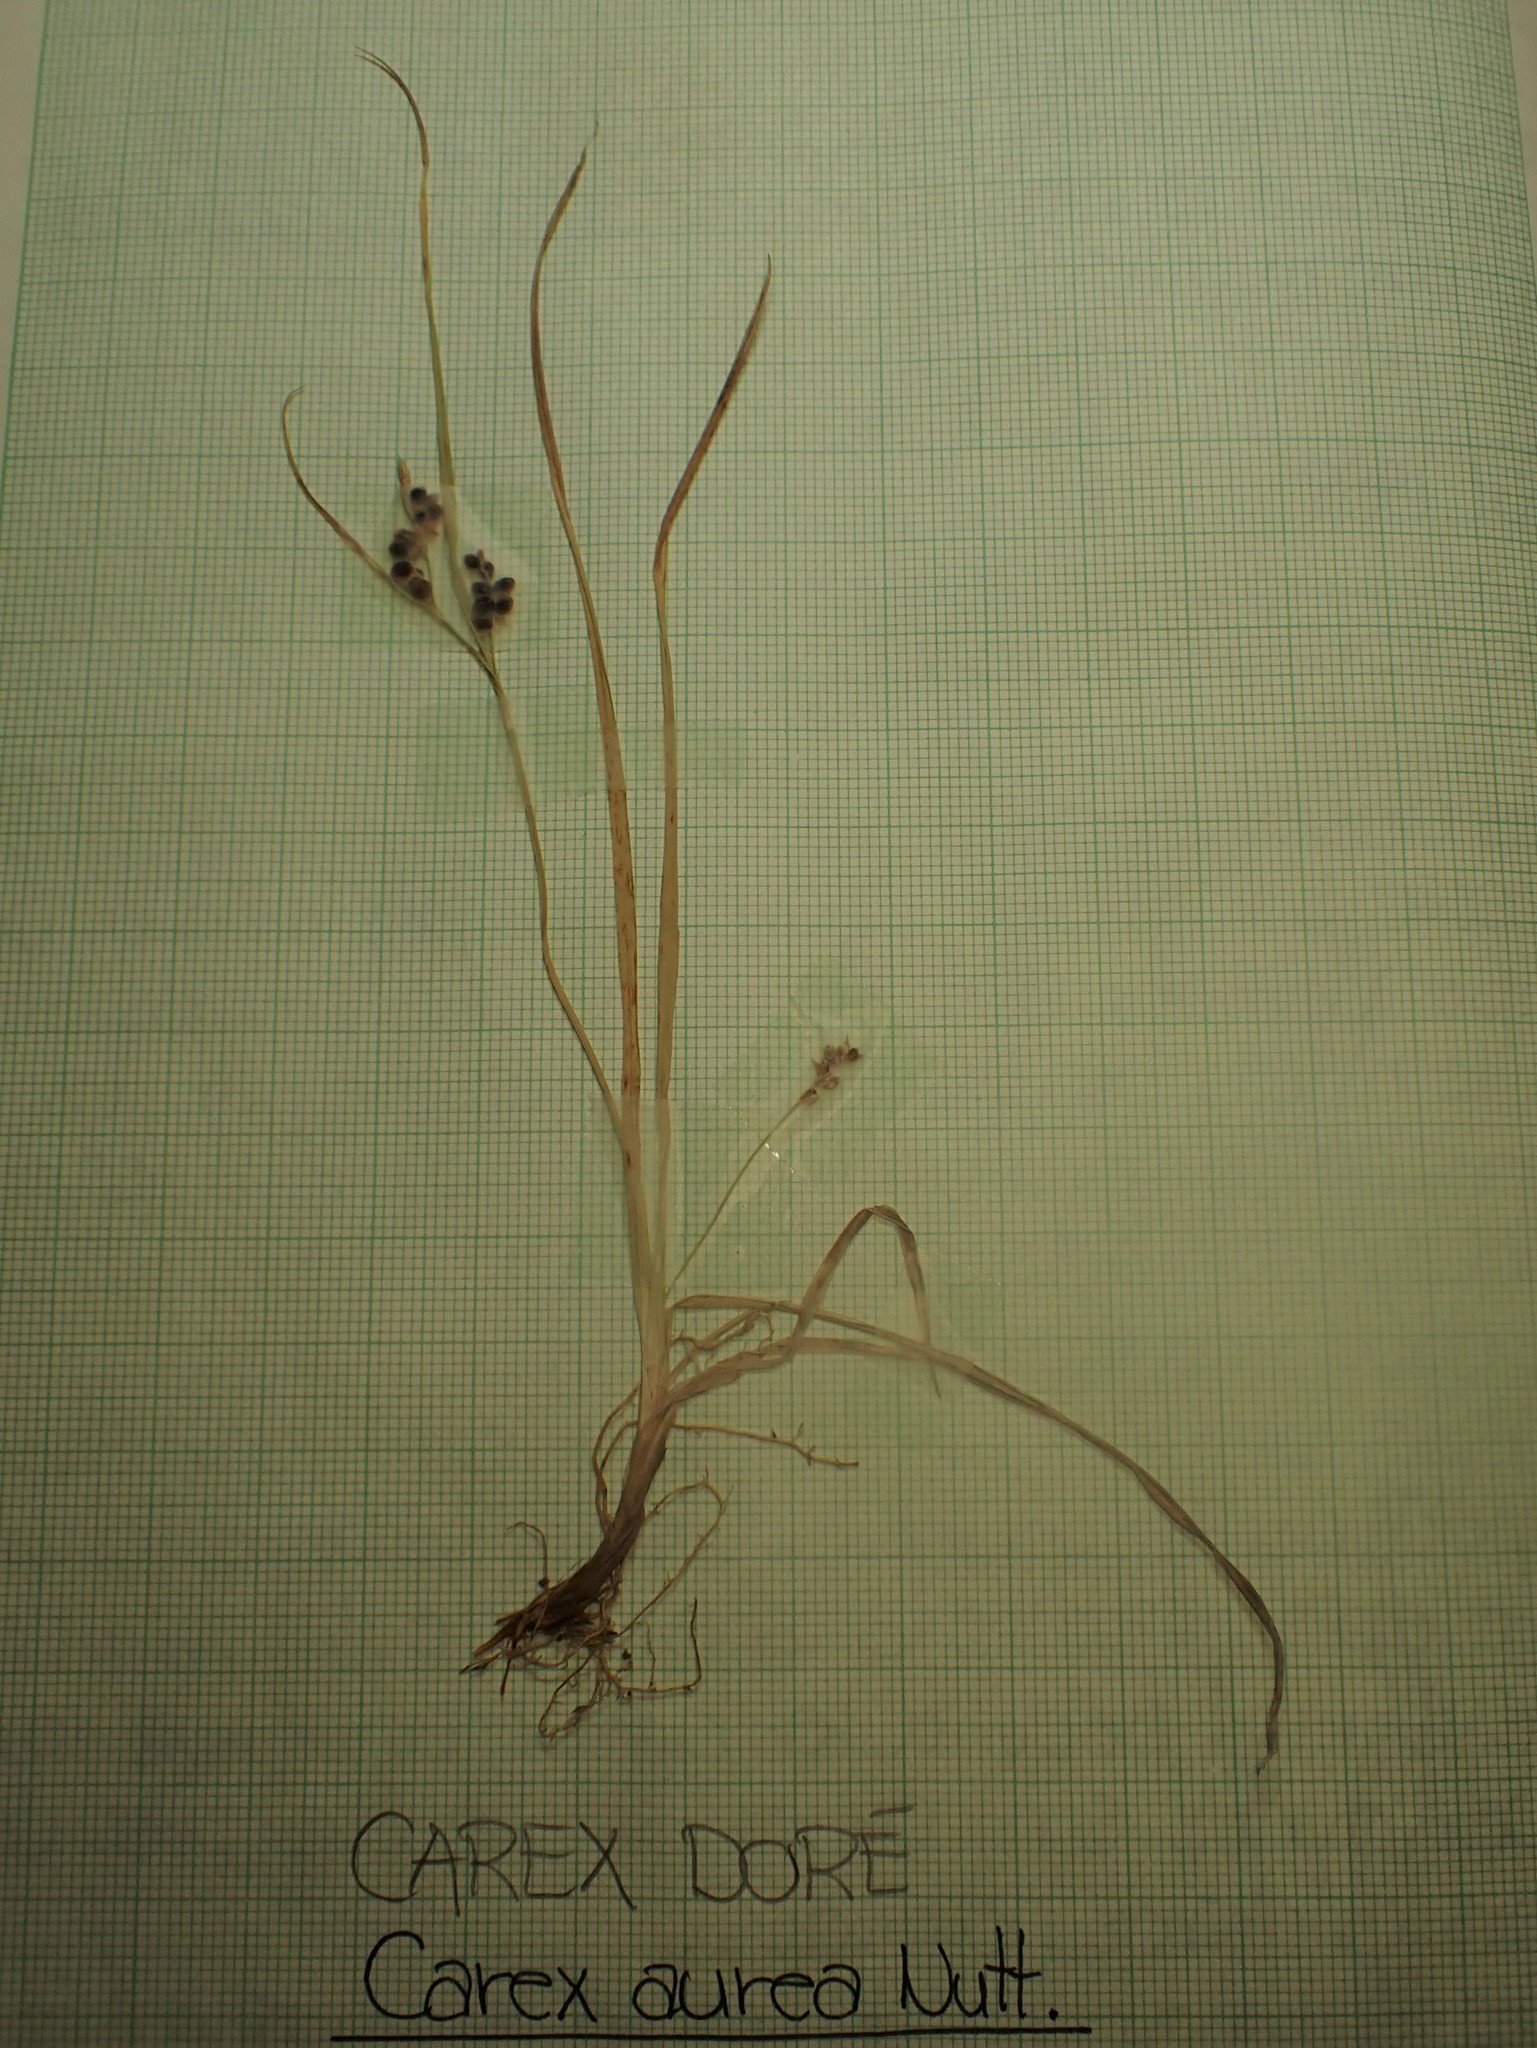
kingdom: Plantae
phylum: Tracheophyta
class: Liliopsida
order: Poales
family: Cyperaceae
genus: Carex
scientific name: Carex aurea
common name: Golden sedge
